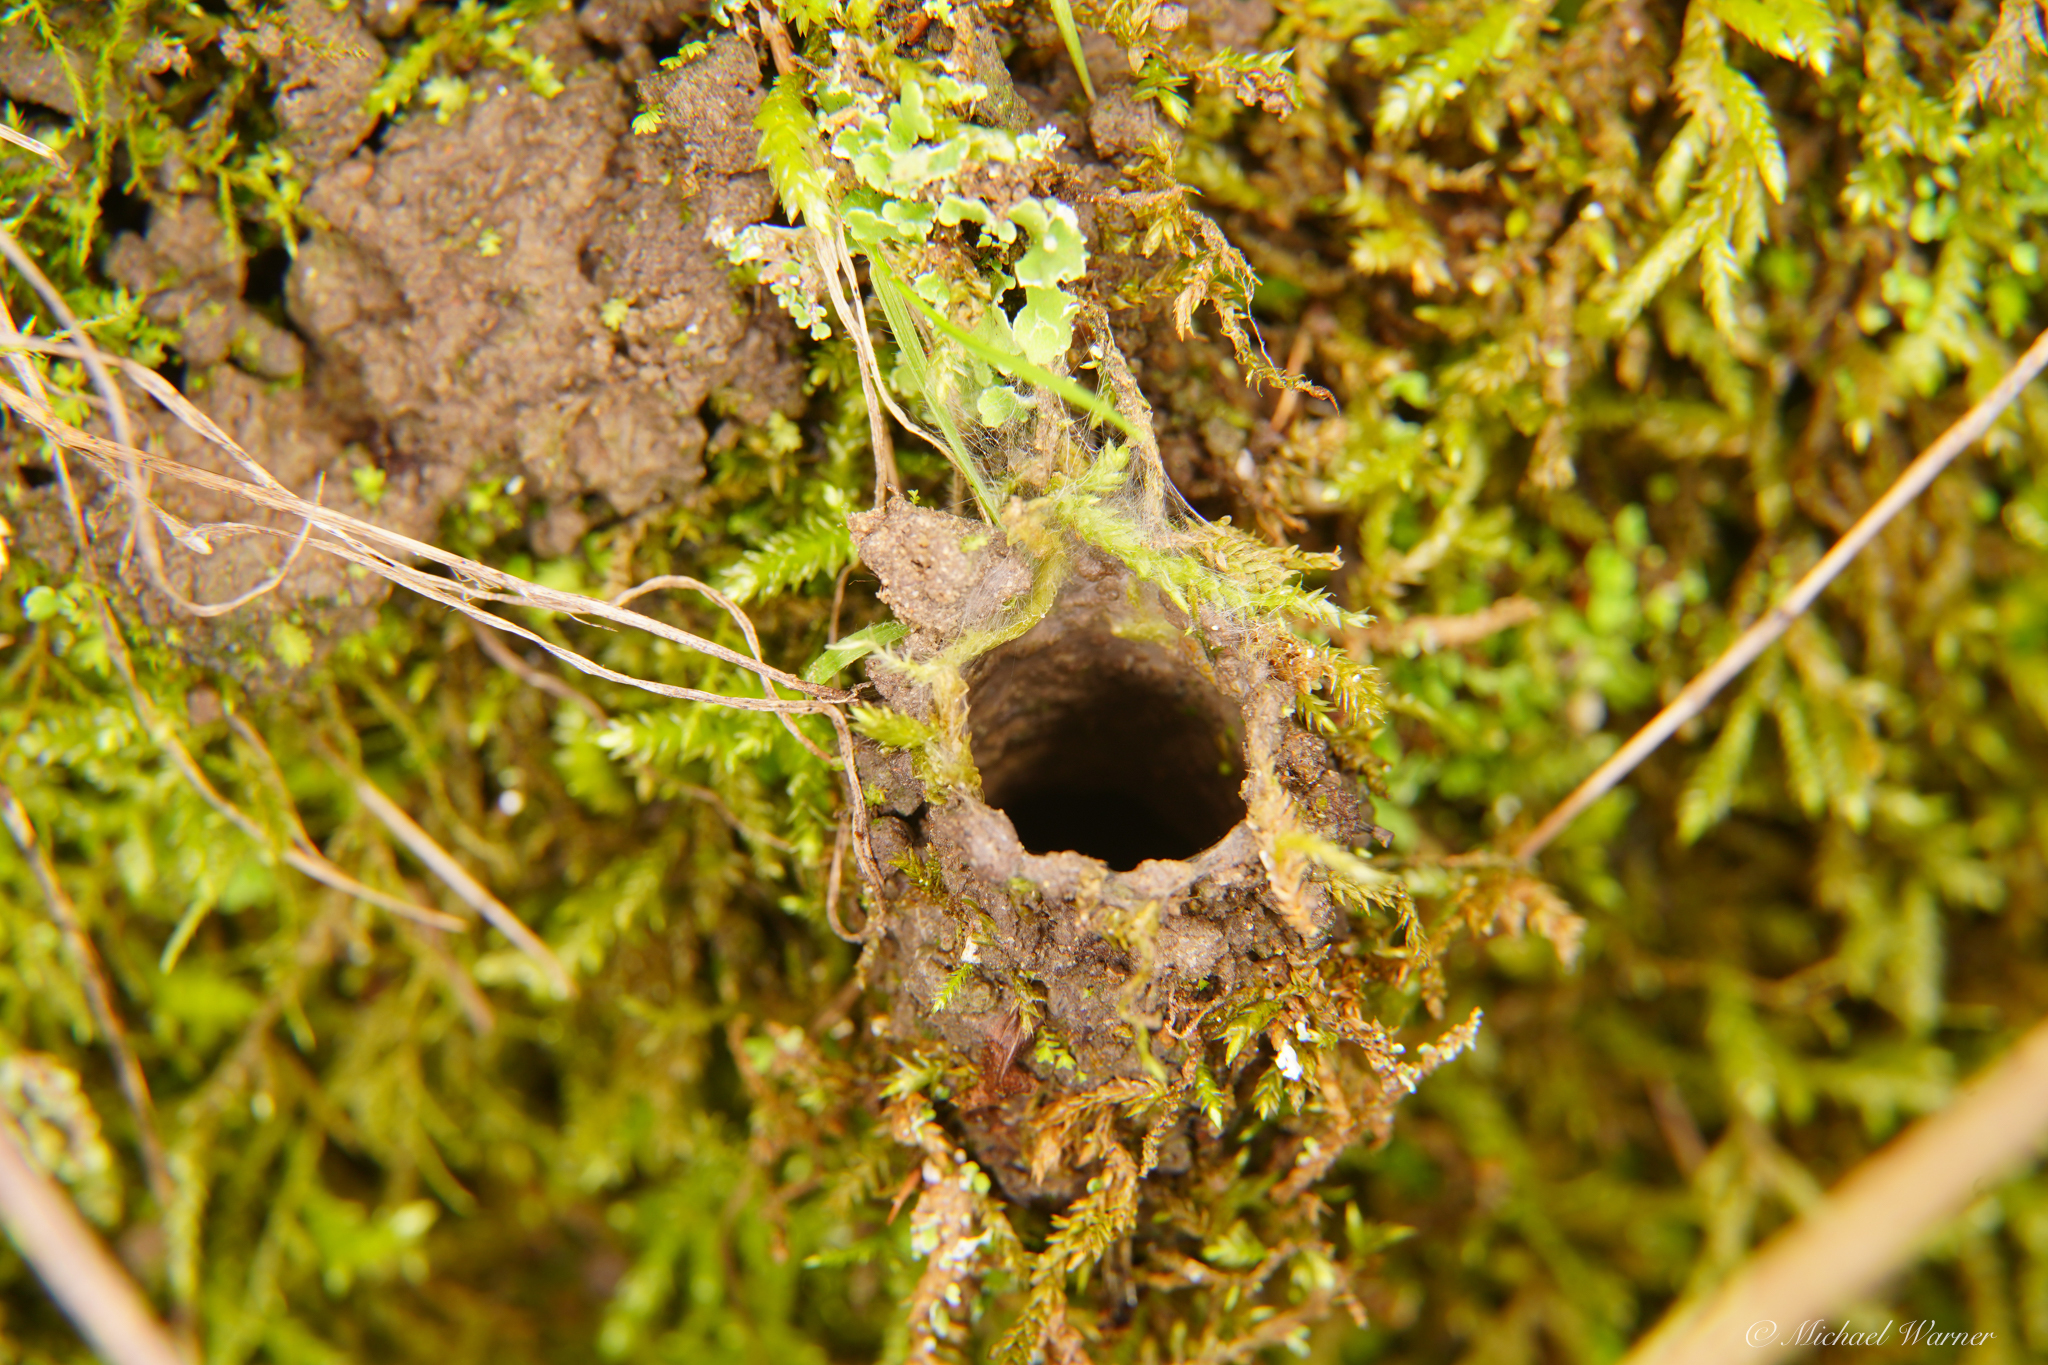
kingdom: Animalia
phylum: Arthropoda
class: Arachnida
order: Araneae
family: Antrodiaetidae
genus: Atypoides
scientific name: Atypoides riversi
